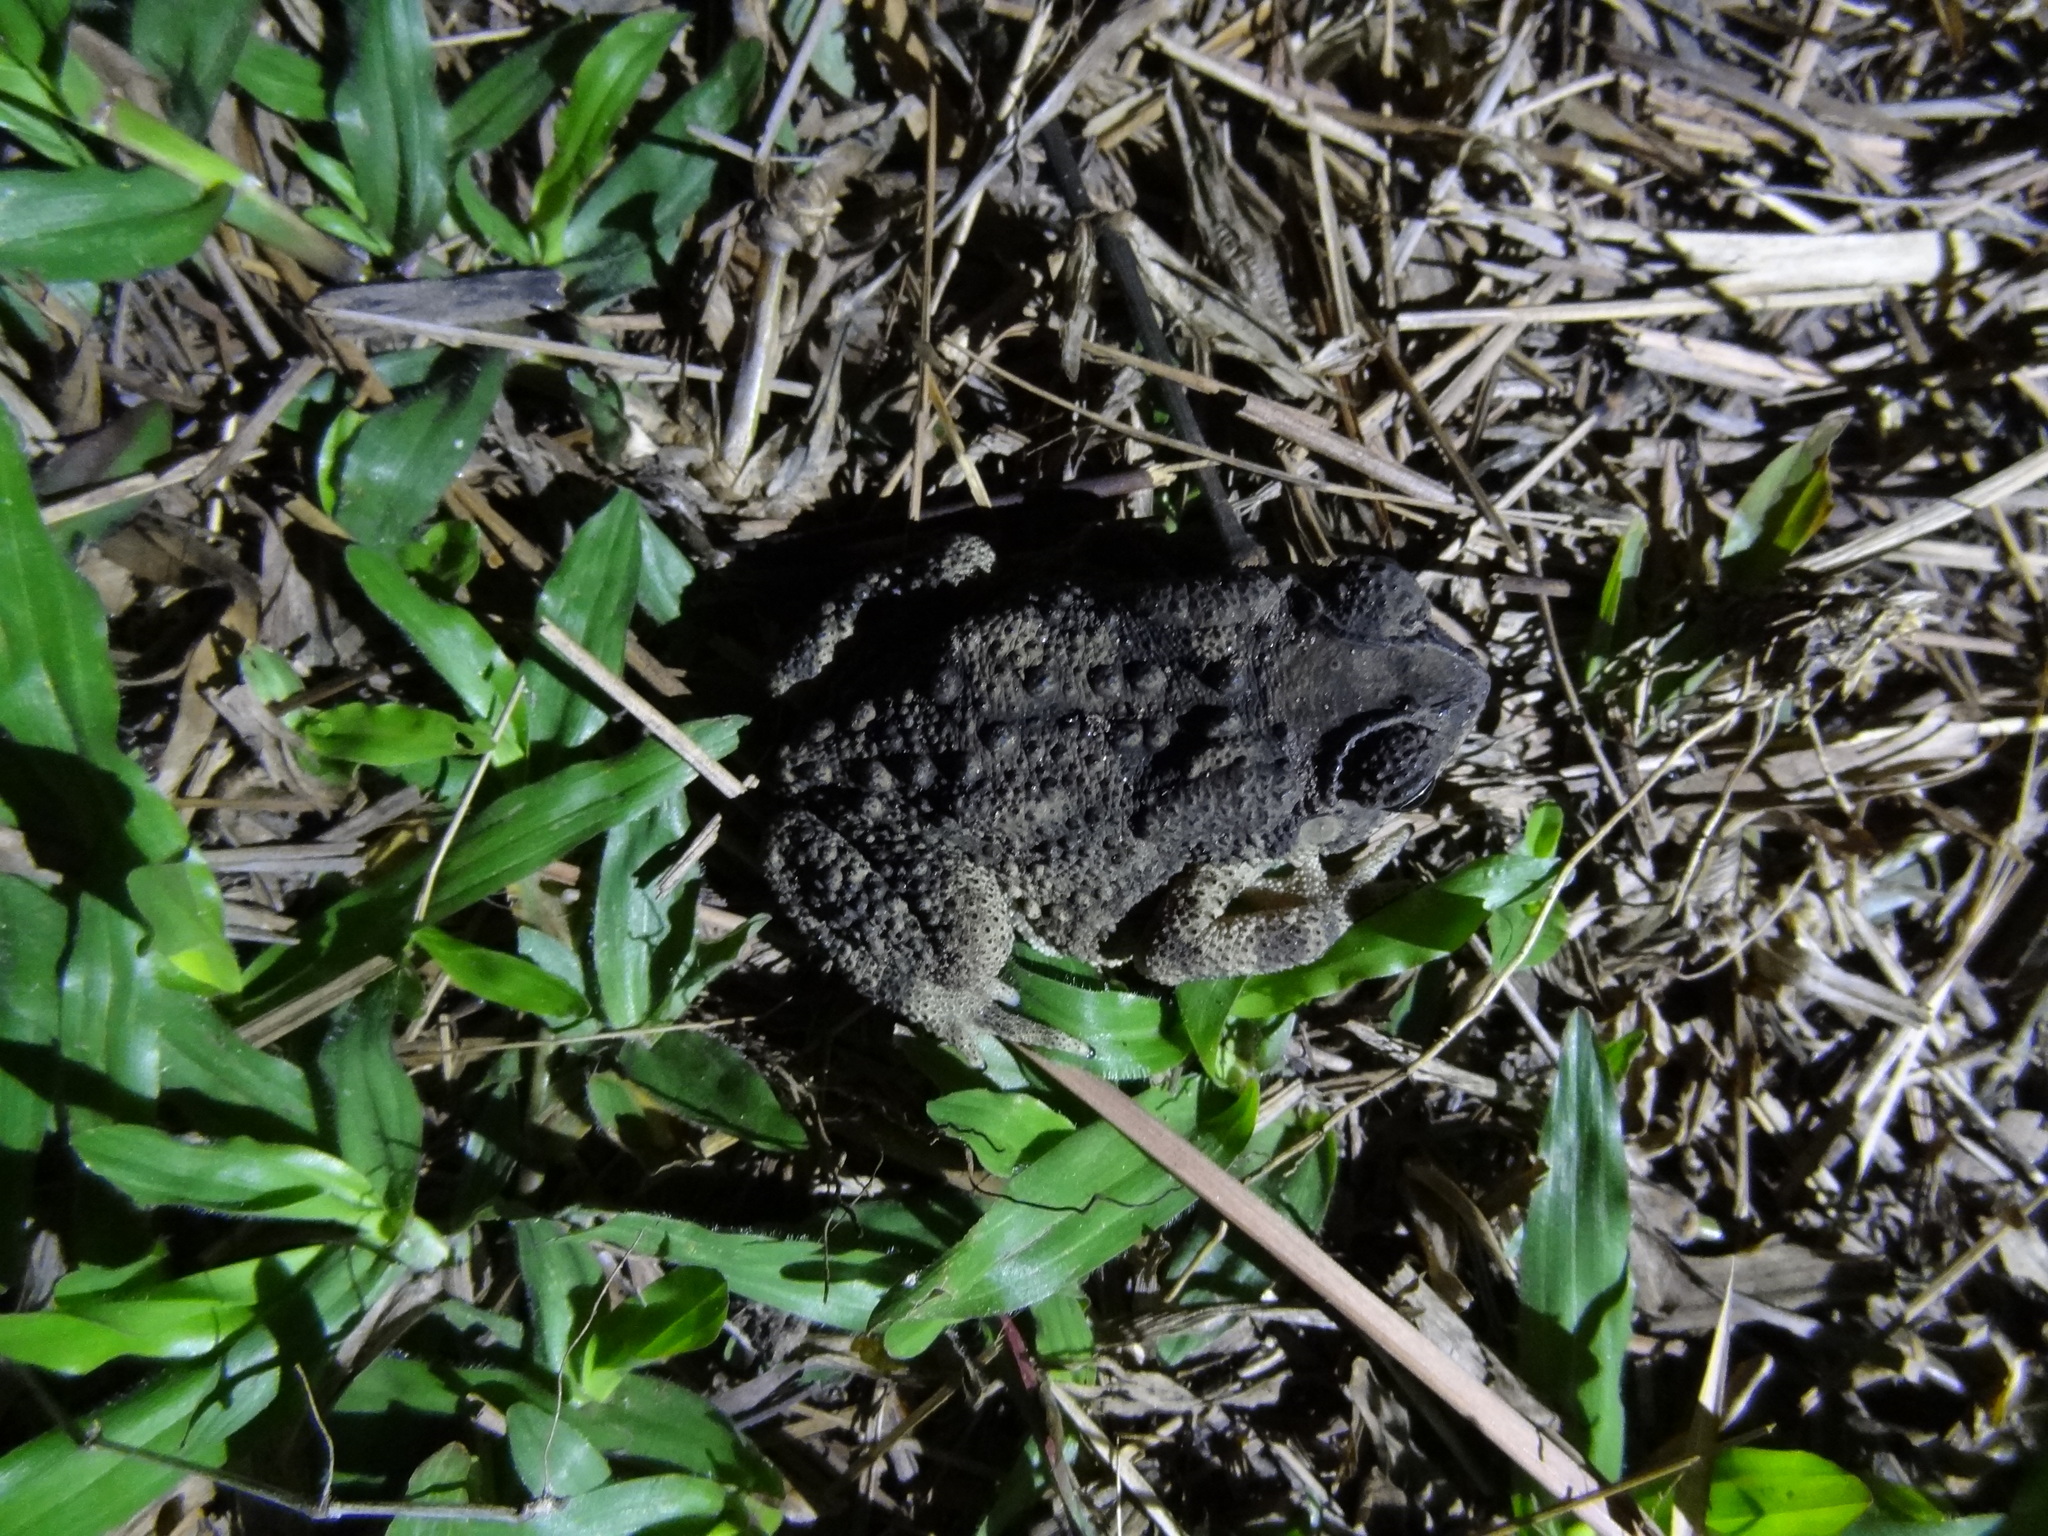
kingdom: Animalia
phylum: Chordata
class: Amphibia
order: Anura
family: Bufonidae
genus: Duttaphrynus
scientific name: Duttaphrynus melanostictus
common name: Common sunda toad
